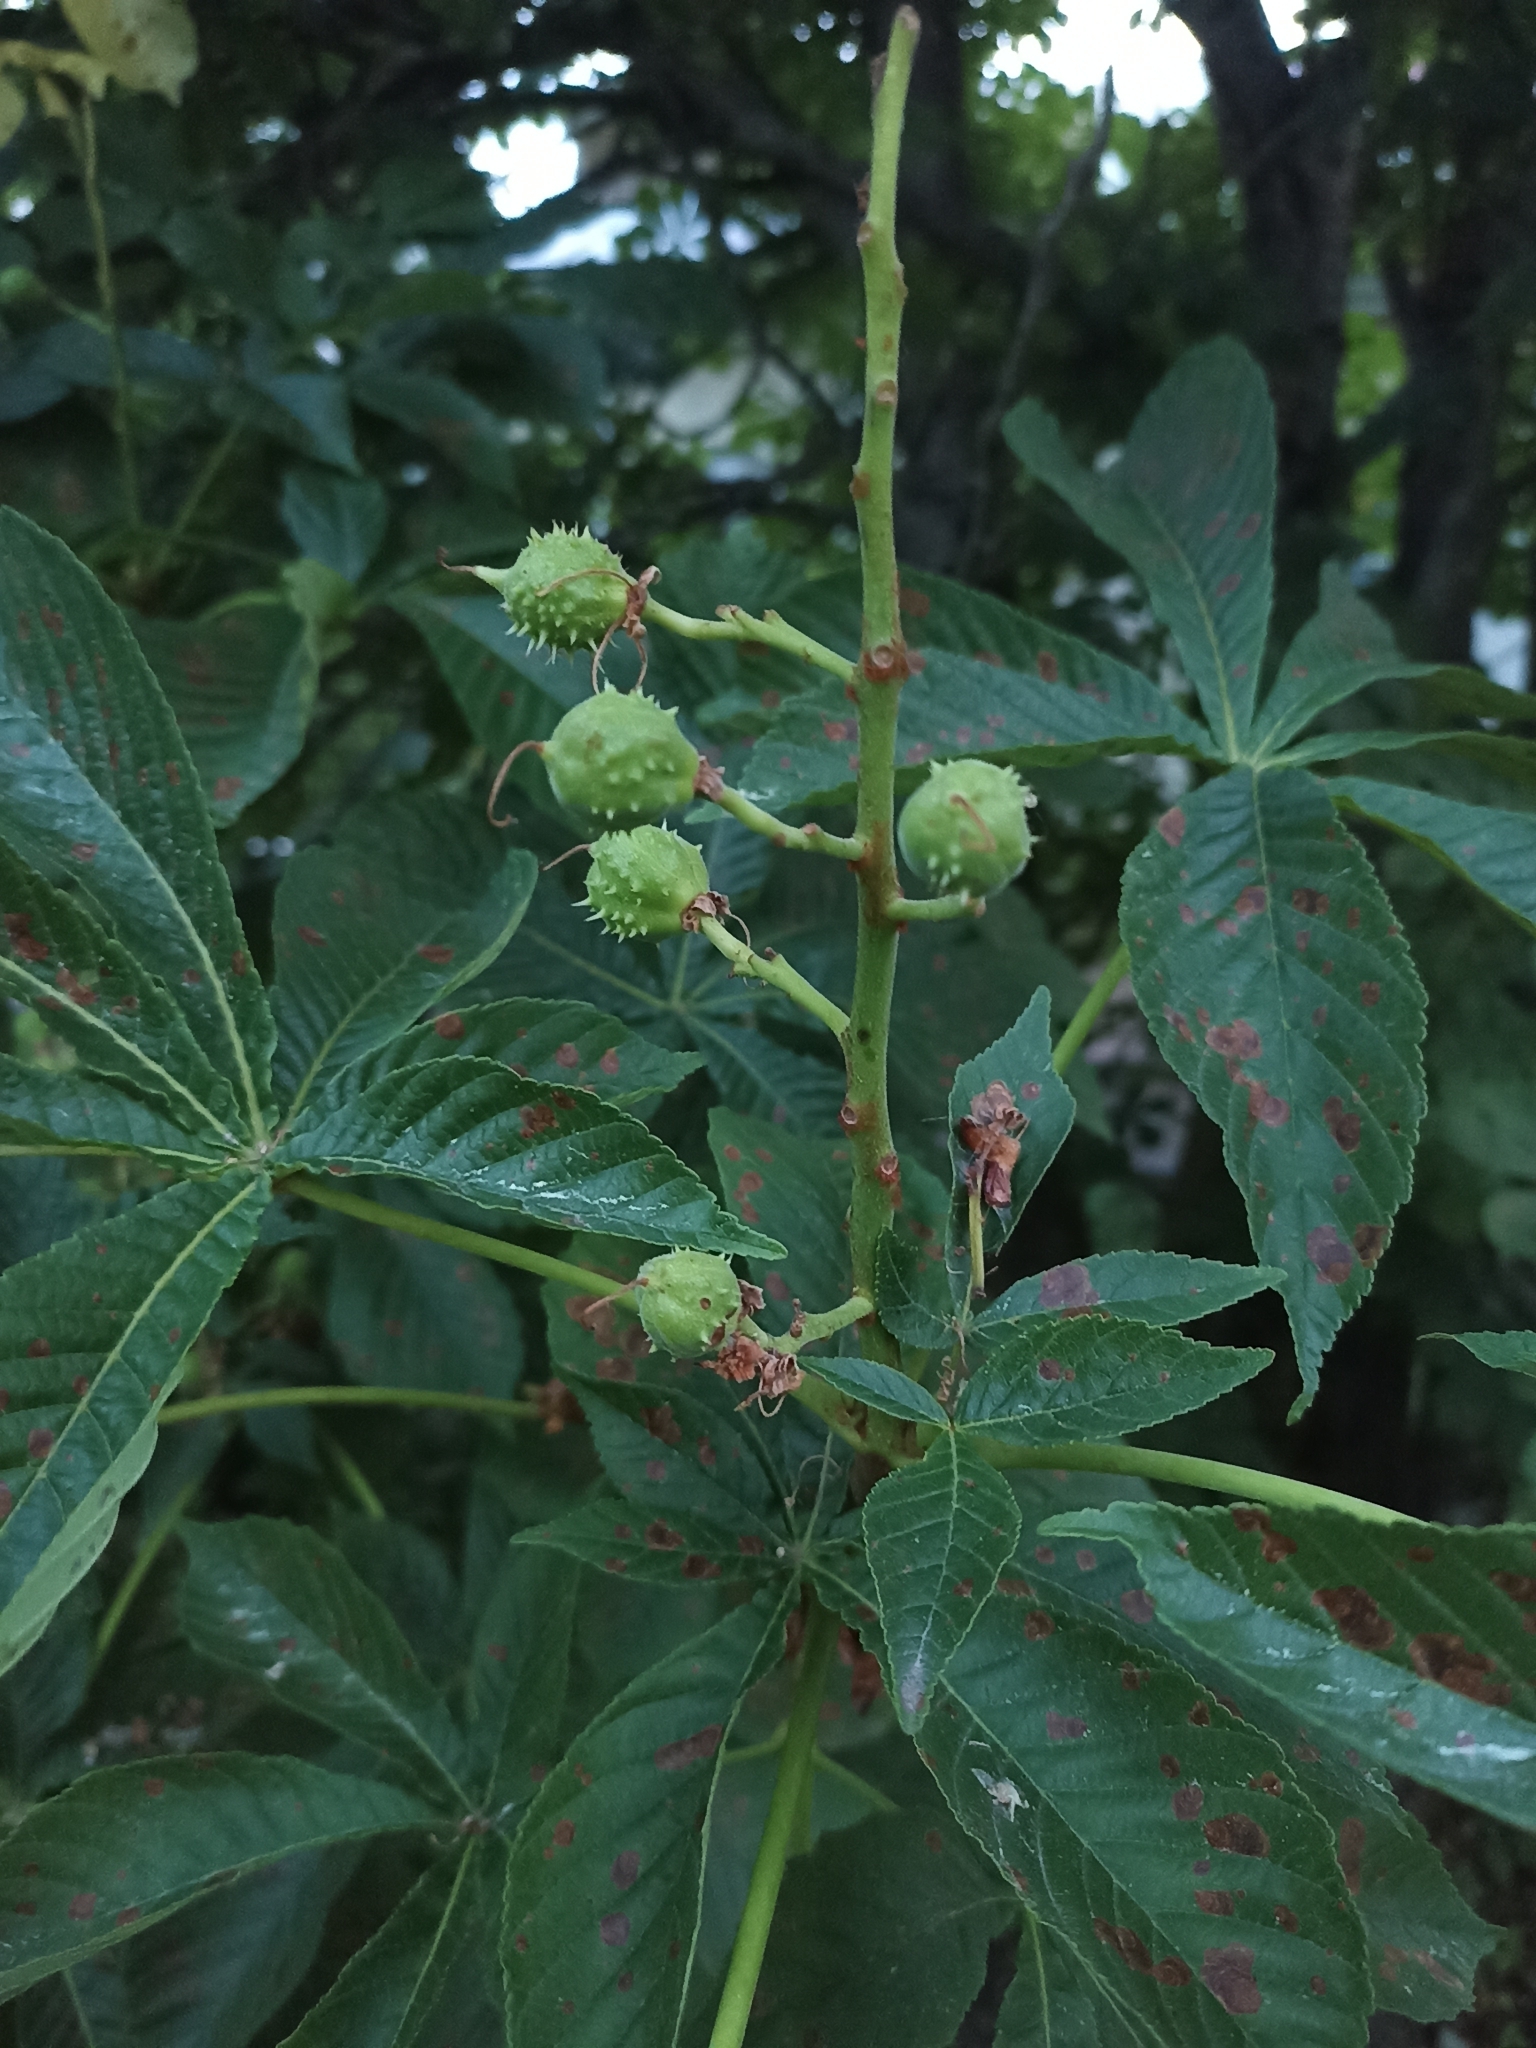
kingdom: Plantae
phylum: Tracheophyta
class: Magnoliopsida
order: Sapindales
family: Sapindaceae
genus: Aesculus
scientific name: Aesculus hippocastanum
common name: Horse-chestnut
